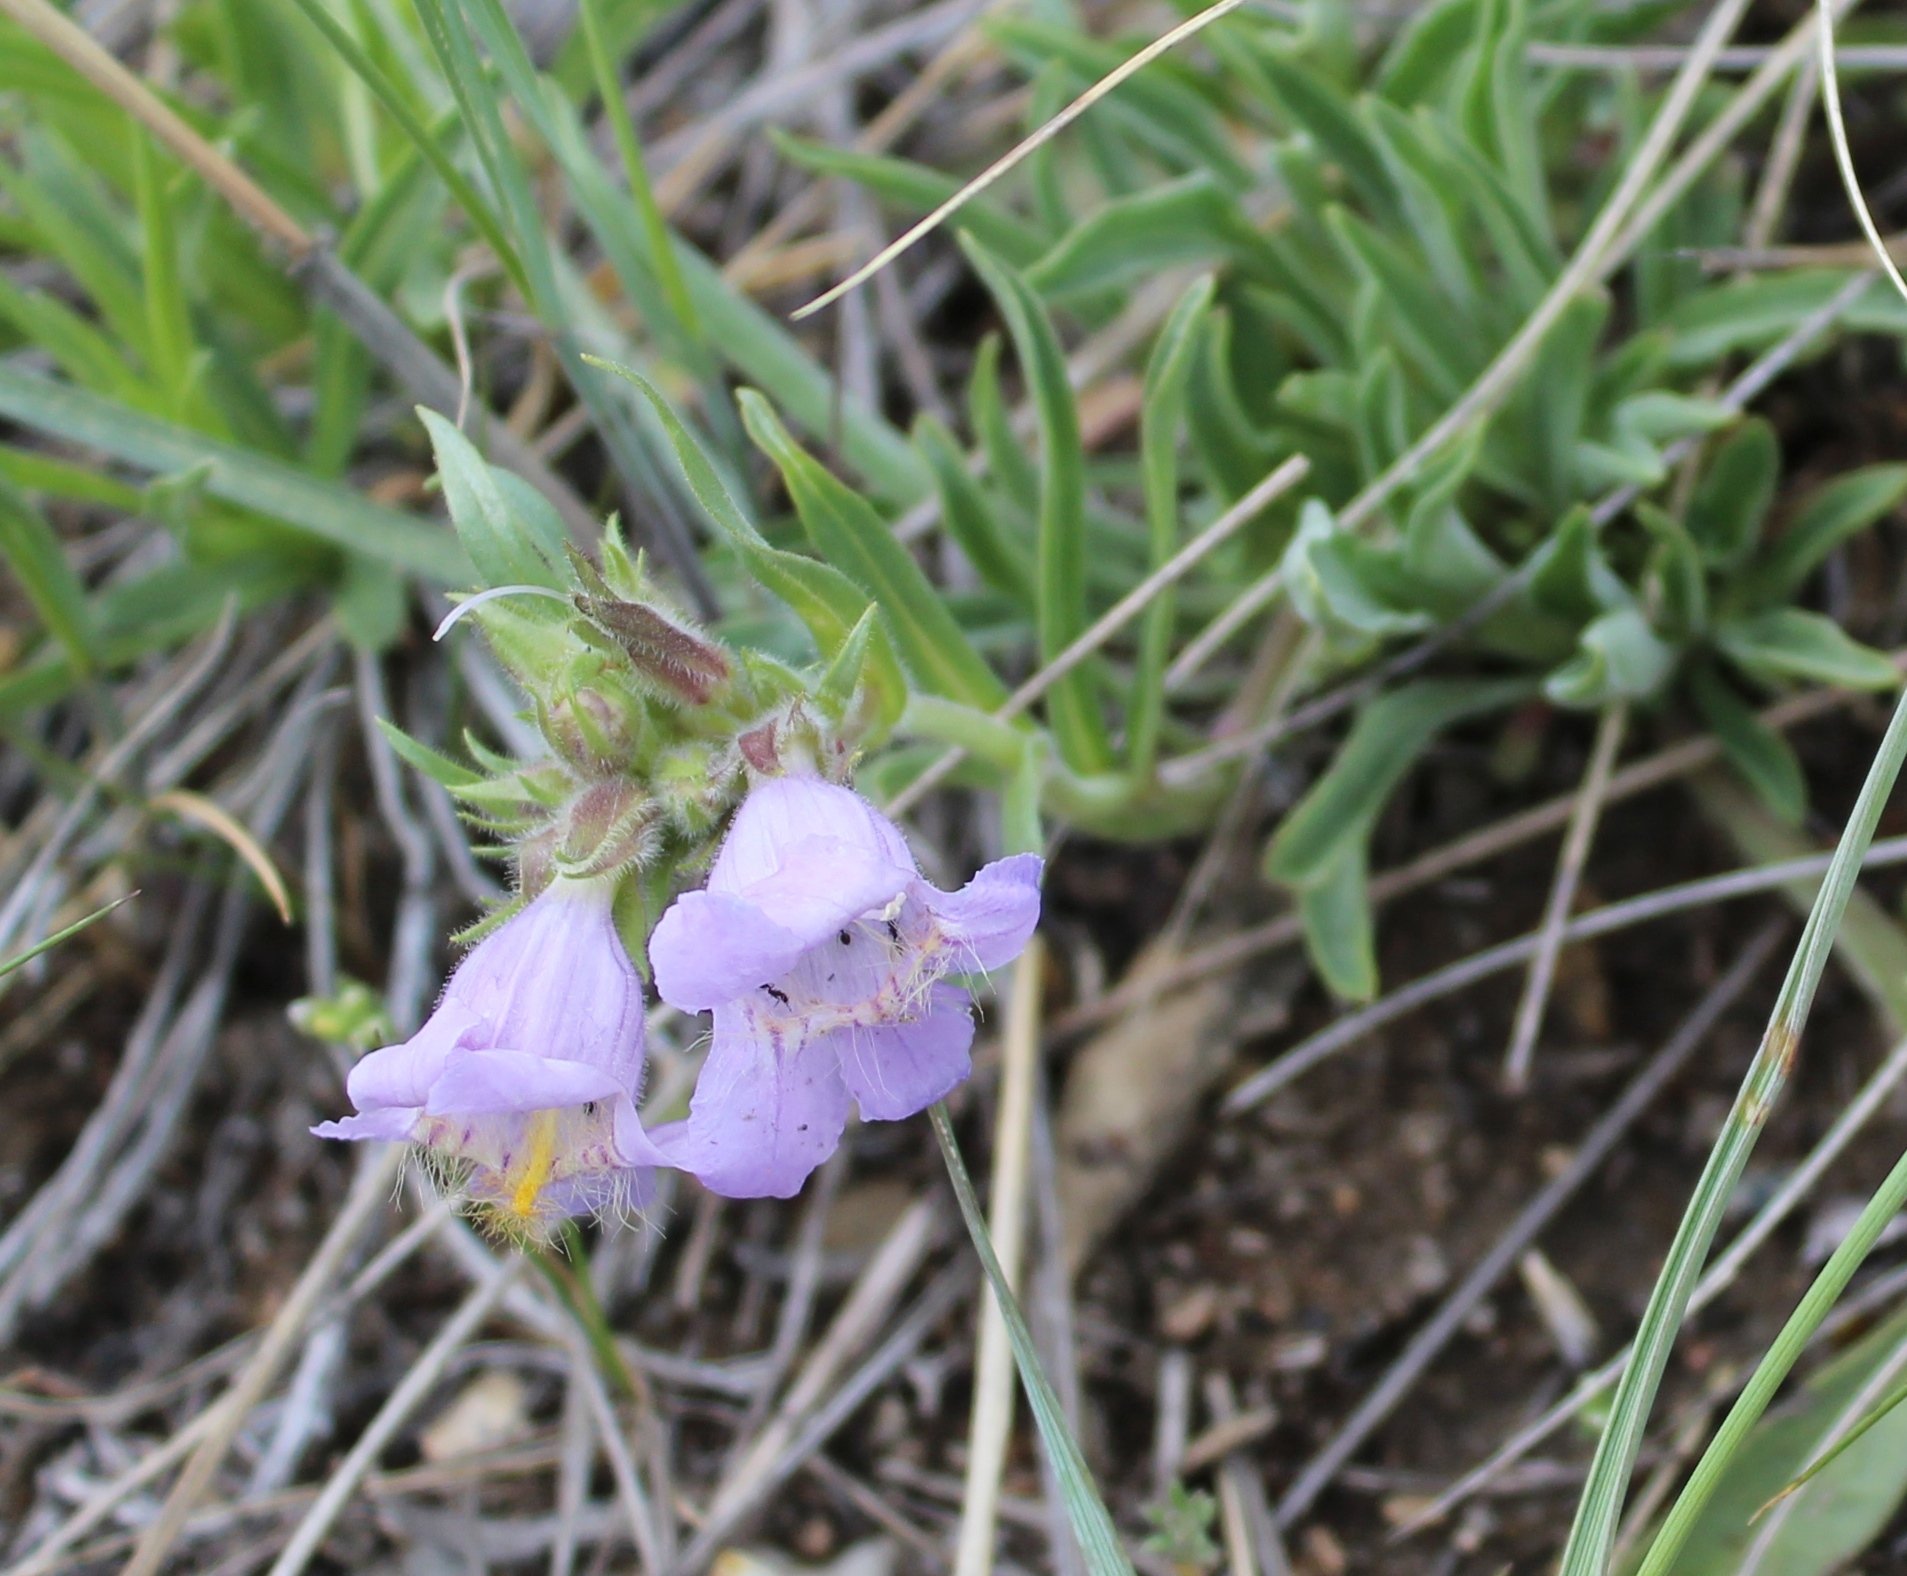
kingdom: Plantae
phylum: Tracheophyta
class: Magnoliopsida
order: Lamiales
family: Plantaginaceae
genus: Penstemon
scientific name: Penstemon eriantherus
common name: Crested beardtongue
